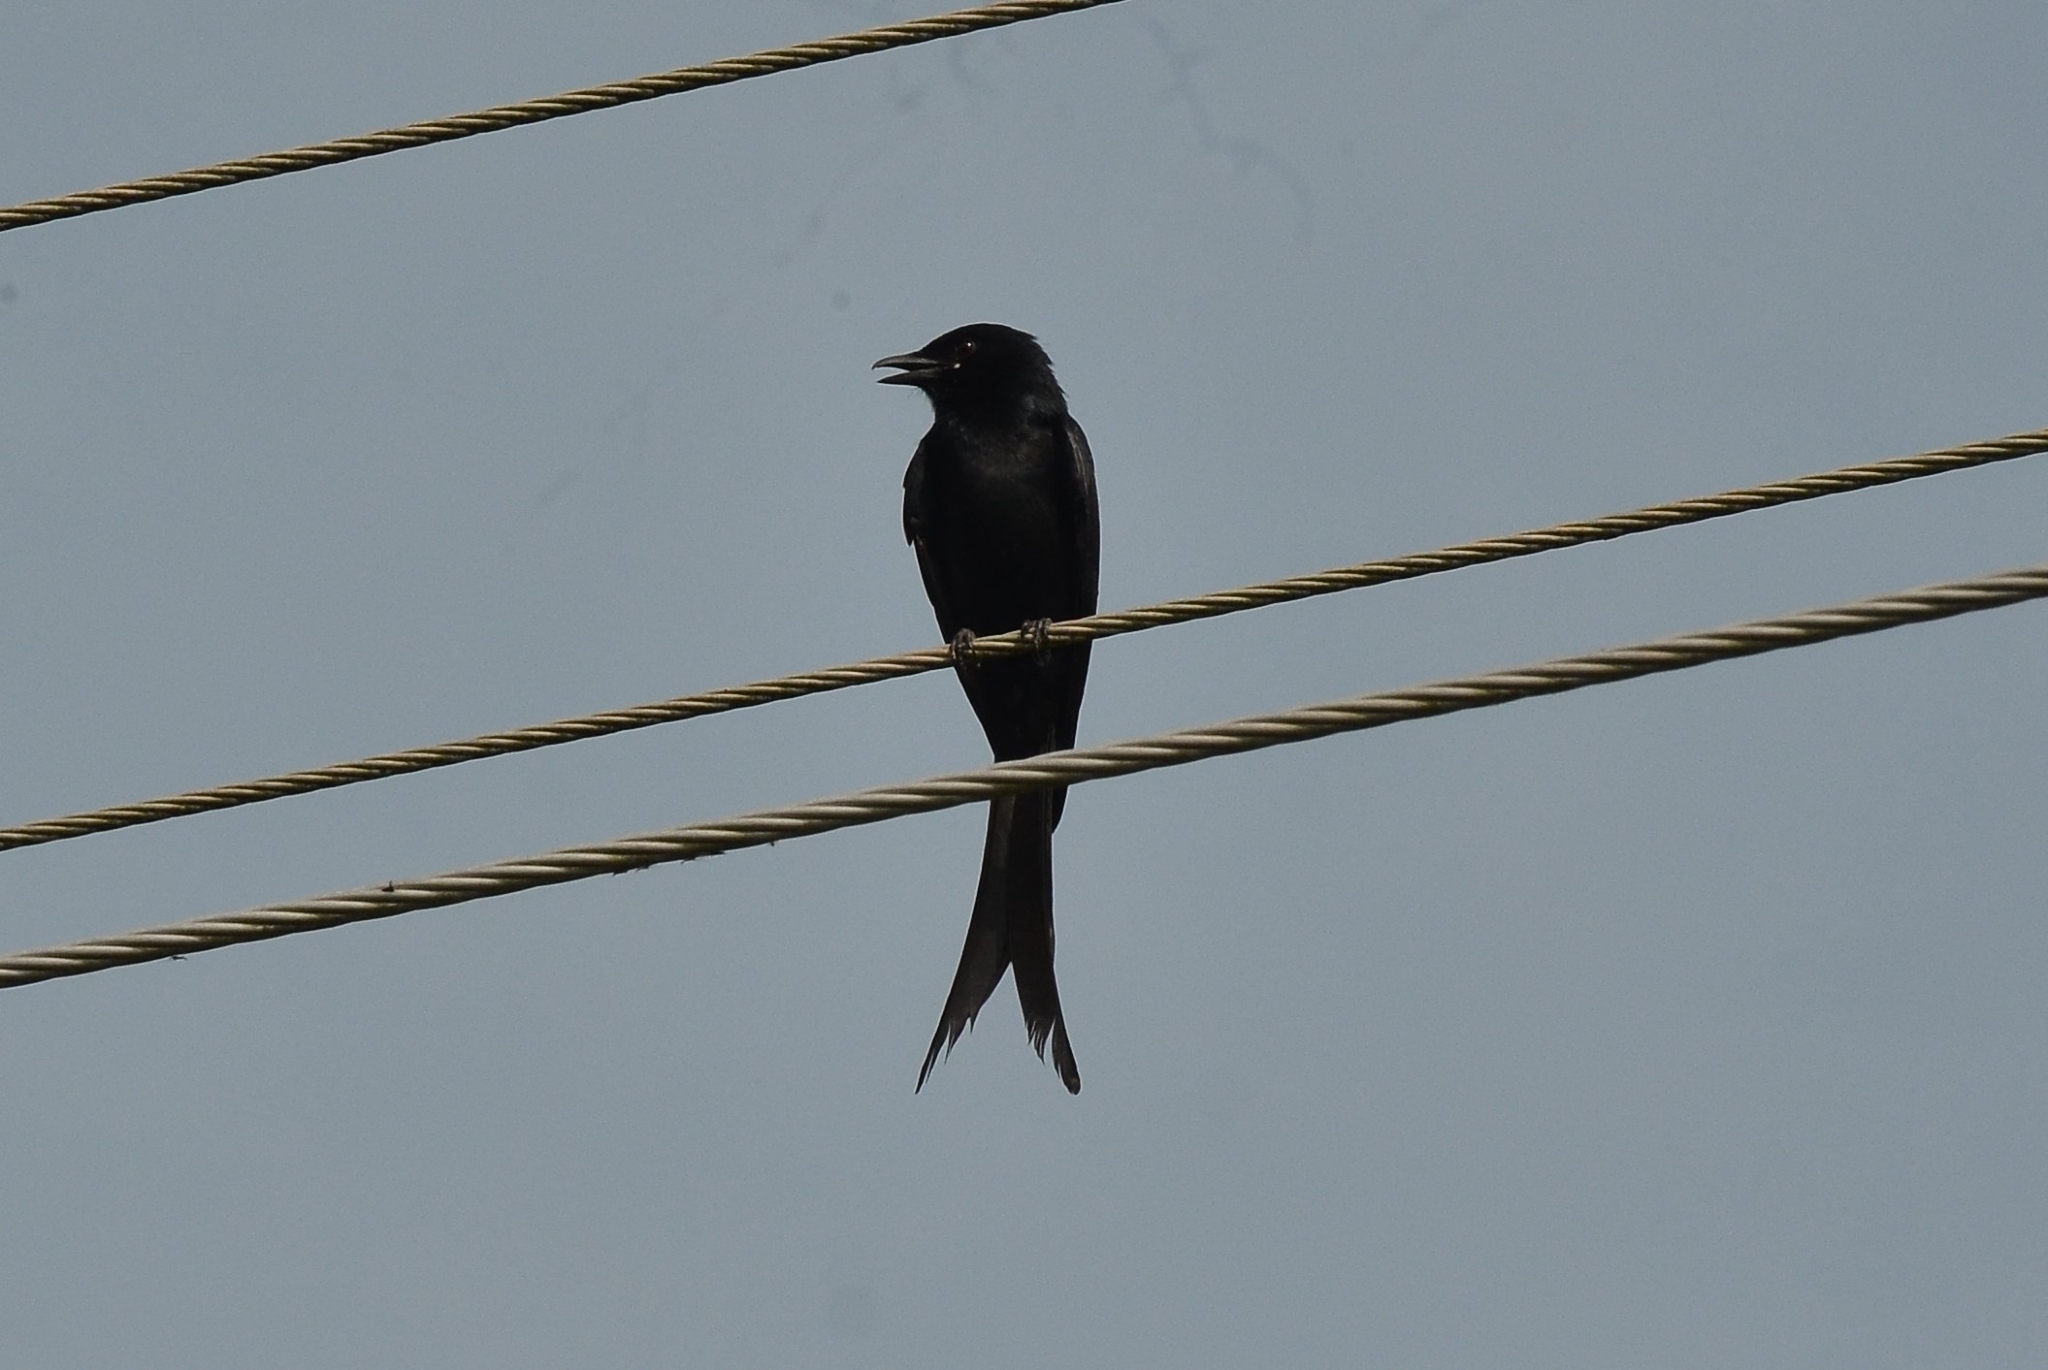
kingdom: Animalia
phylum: Chordata
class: Aves
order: Passeriformes
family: Dicruridae
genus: Dicrurus
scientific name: Dicrurus macrocercus
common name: Black drongo
